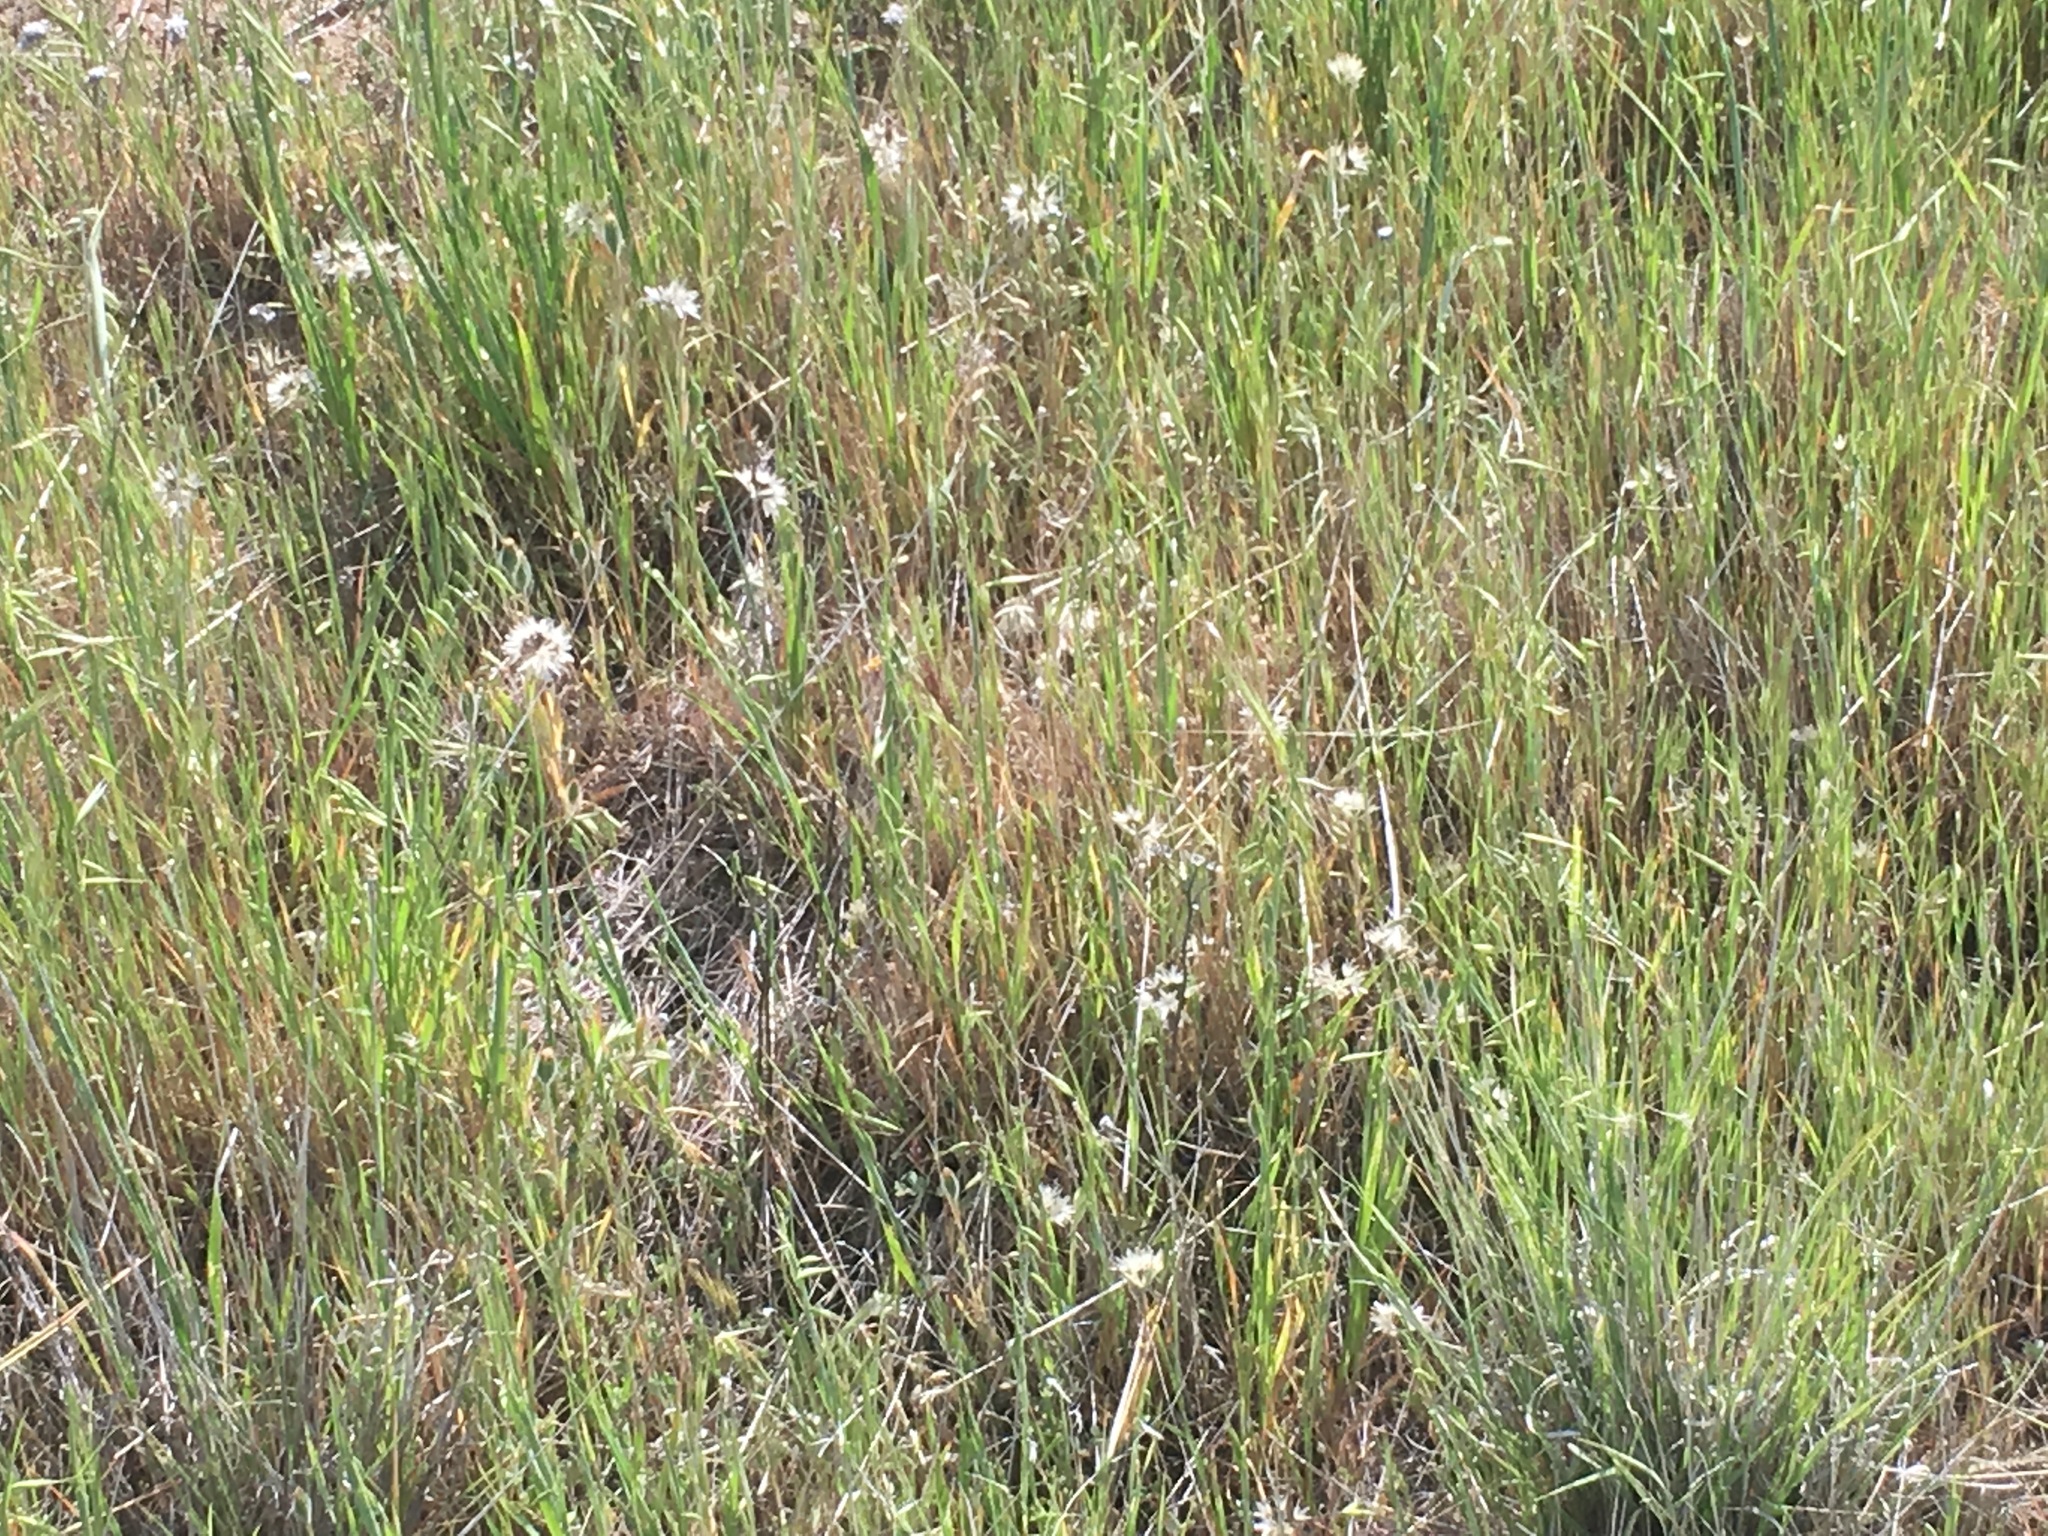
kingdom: Plantae
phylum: Tracheophyta
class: Magnoliopsida
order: Asterales
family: Asteraceae
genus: Achyrachaena
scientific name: Achyrachaena mollis
